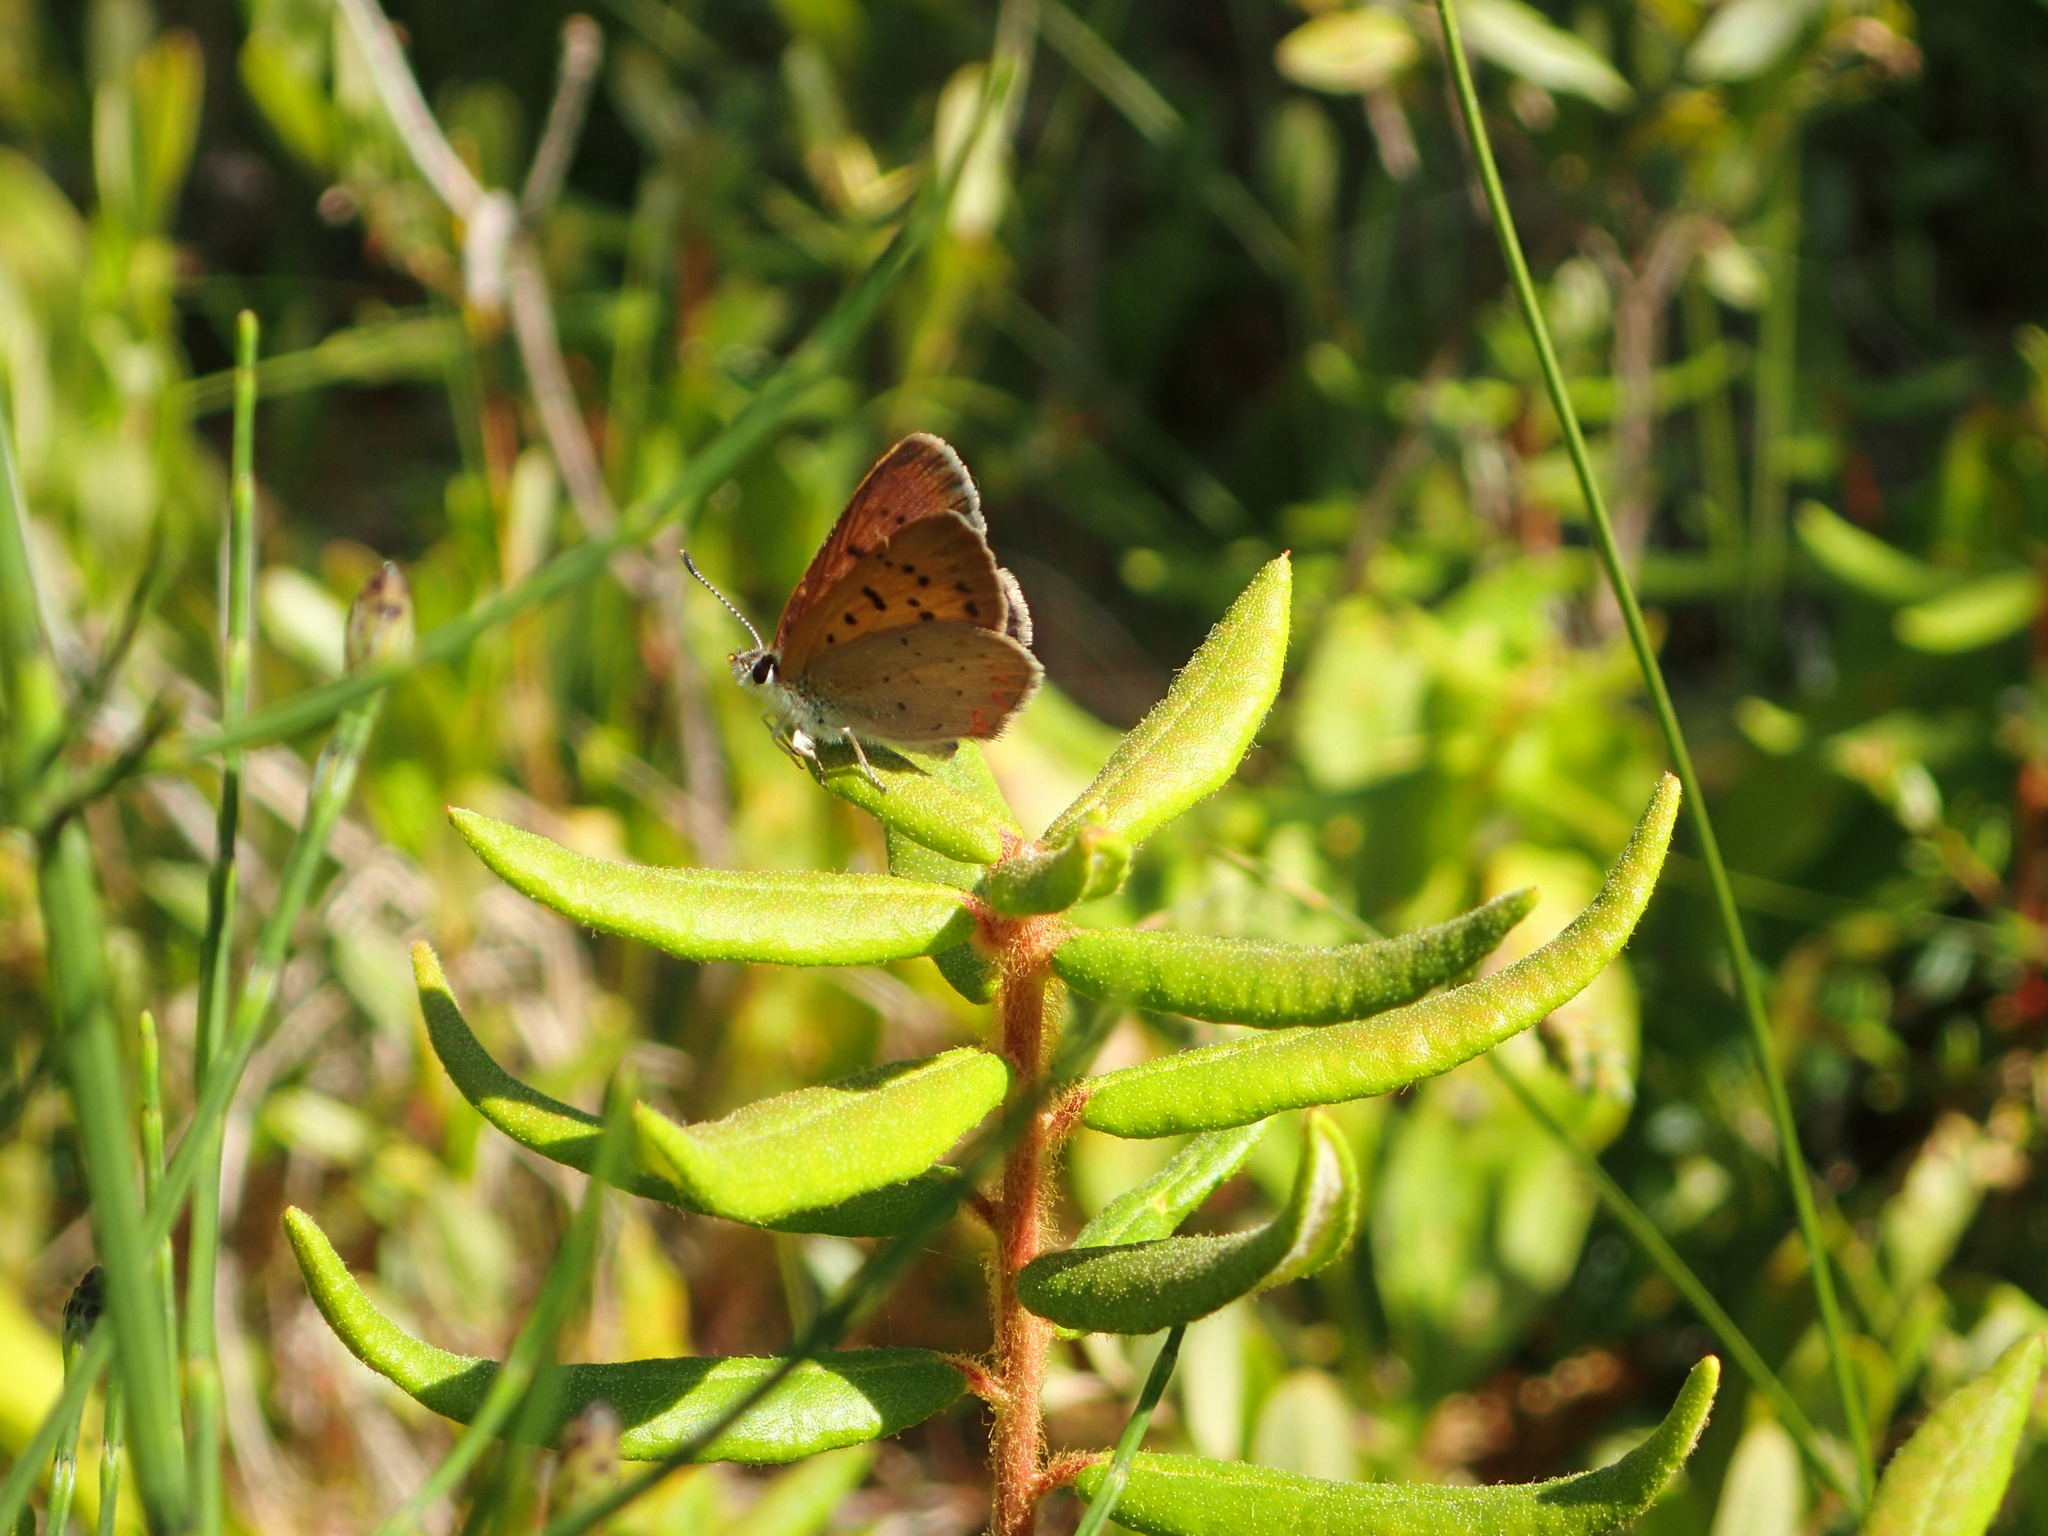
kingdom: Animalia
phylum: Arthropoda
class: Insecta
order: Lepidoptera
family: Lycaenidae
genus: Tharsalea
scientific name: Tharsalea dorcas
